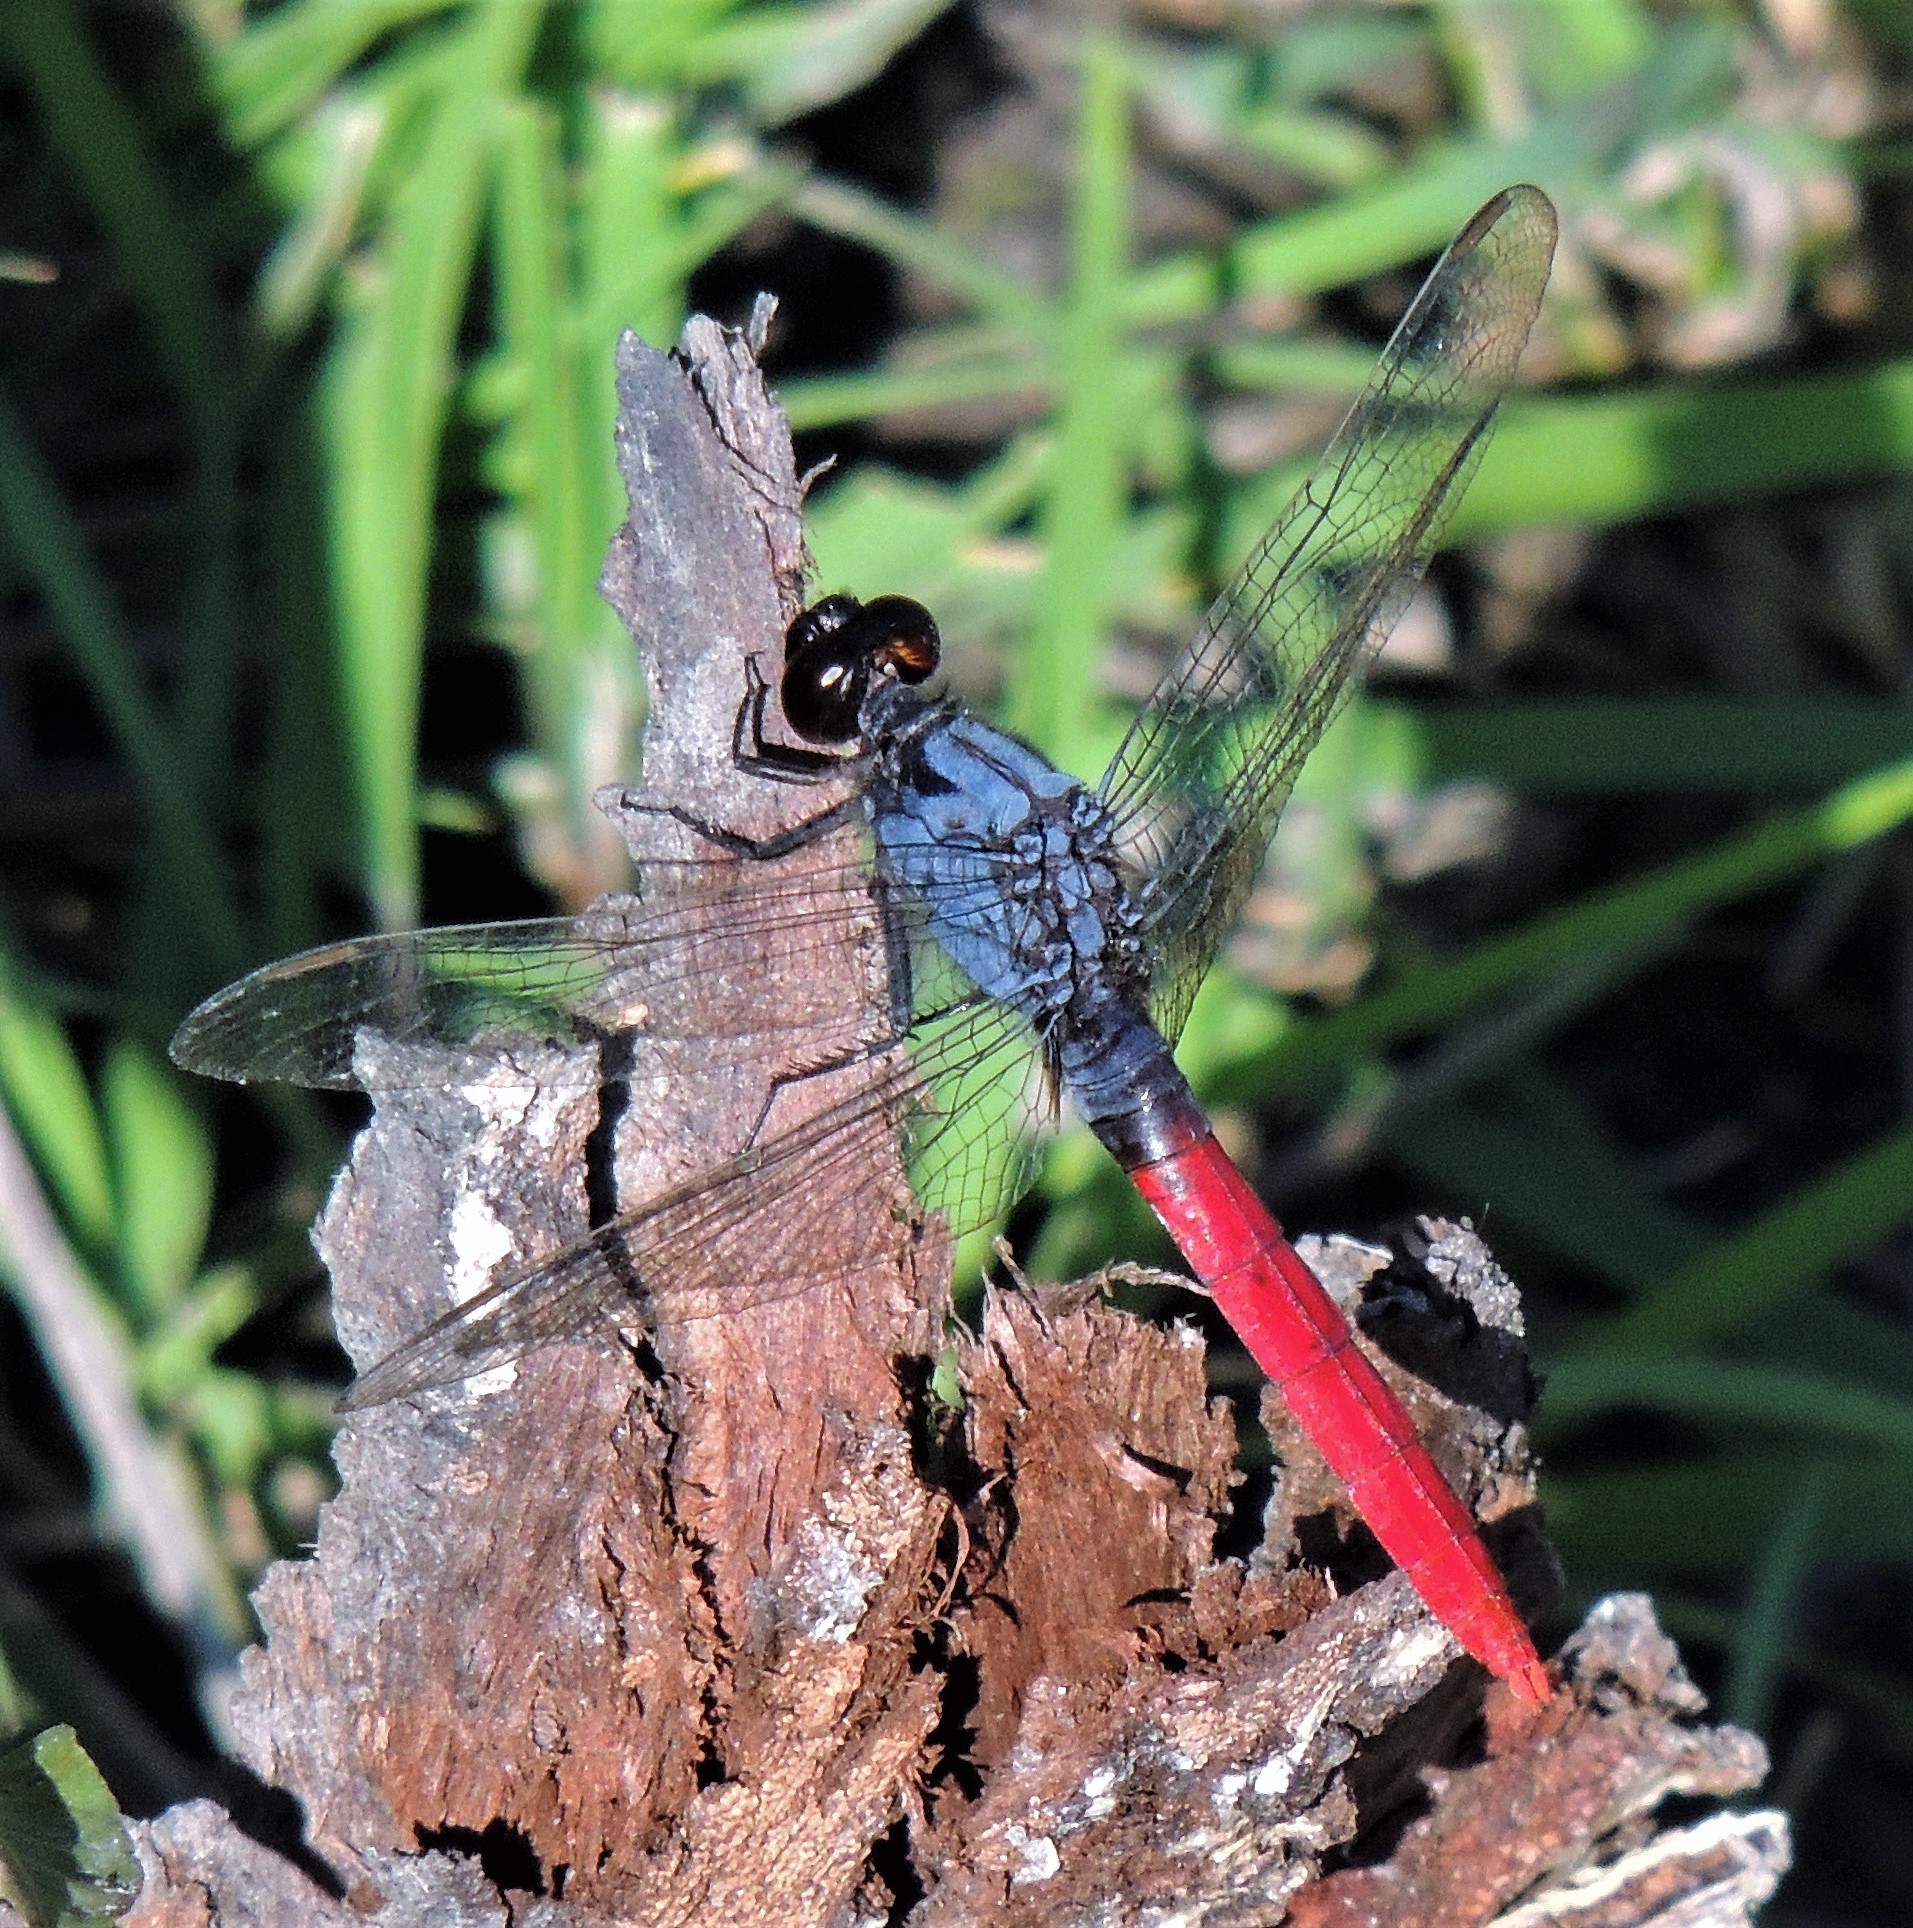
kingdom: Animalia
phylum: Arthropoda
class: Insecta
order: Odonata
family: Libellulidae
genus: Erythemis
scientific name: Erythemis peruviana
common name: Flame-tailed pondhawk
